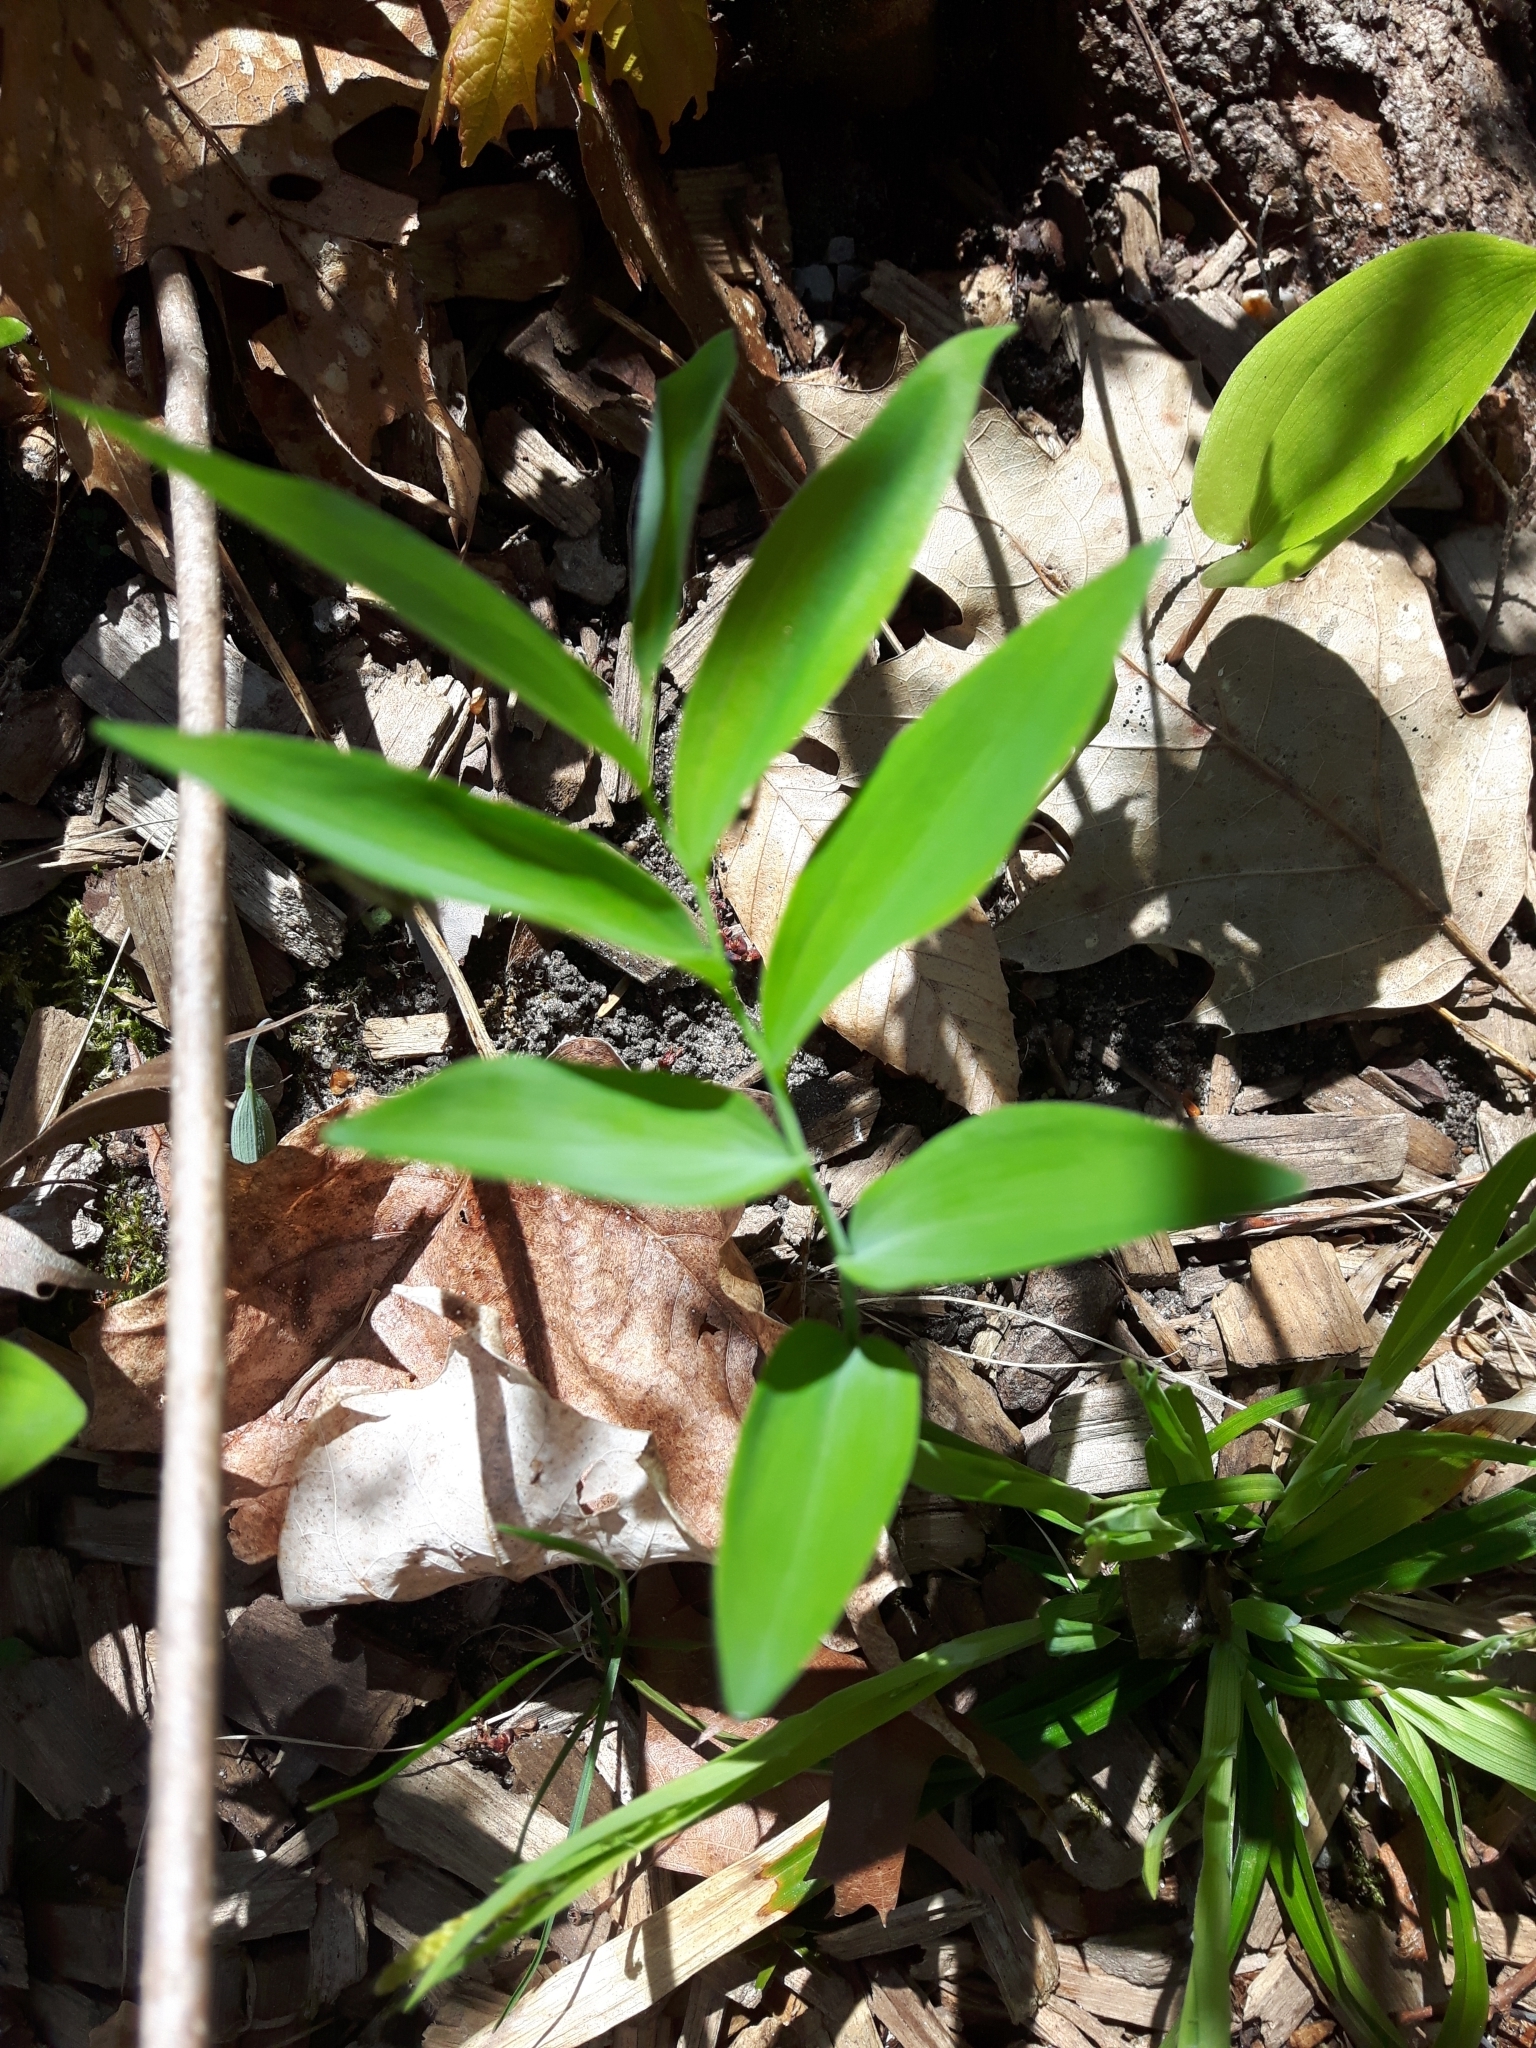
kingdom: Plantae
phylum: Tracheophyta
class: Liliopsida
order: Asparagales
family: Asparagaceae
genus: Polygonatum
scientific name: Polygonatum pubescens
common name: Downy solomon's seal
